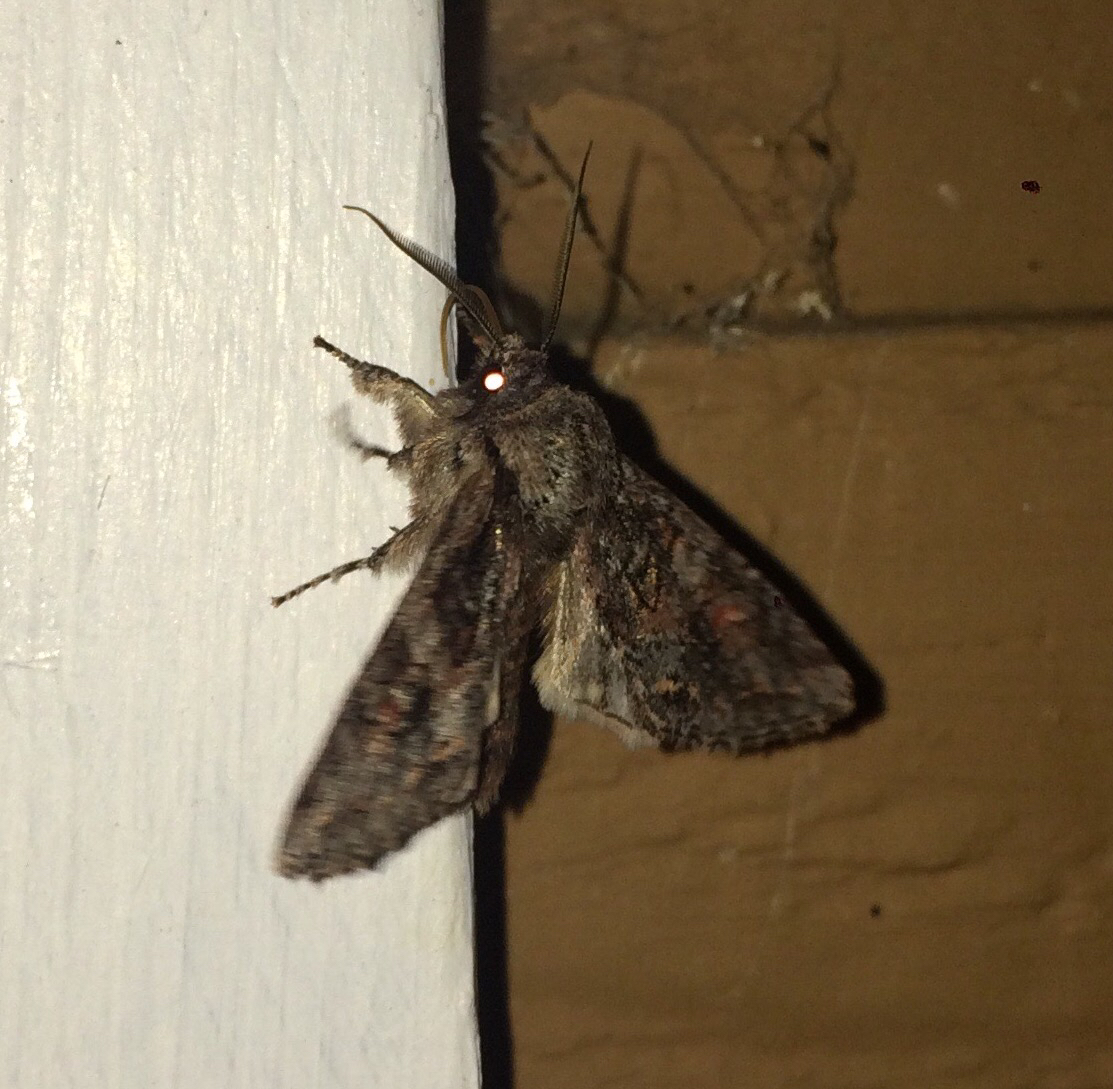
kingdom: Animalia
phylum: Arthropoda
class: Insecta
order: Lepidoptera
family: Noctuidae
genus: Egira
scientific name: Egira hiemalis
